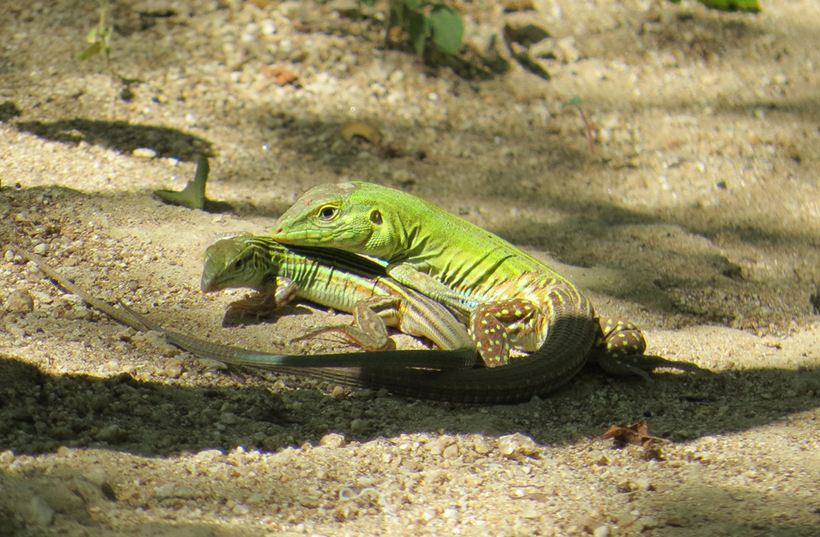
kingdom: Animalia
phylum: Chordata
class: Squamata
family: Teiidae
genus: Aspidoscelis
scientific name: Aspidoscelis deppii
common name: Blackbelly racerunner
